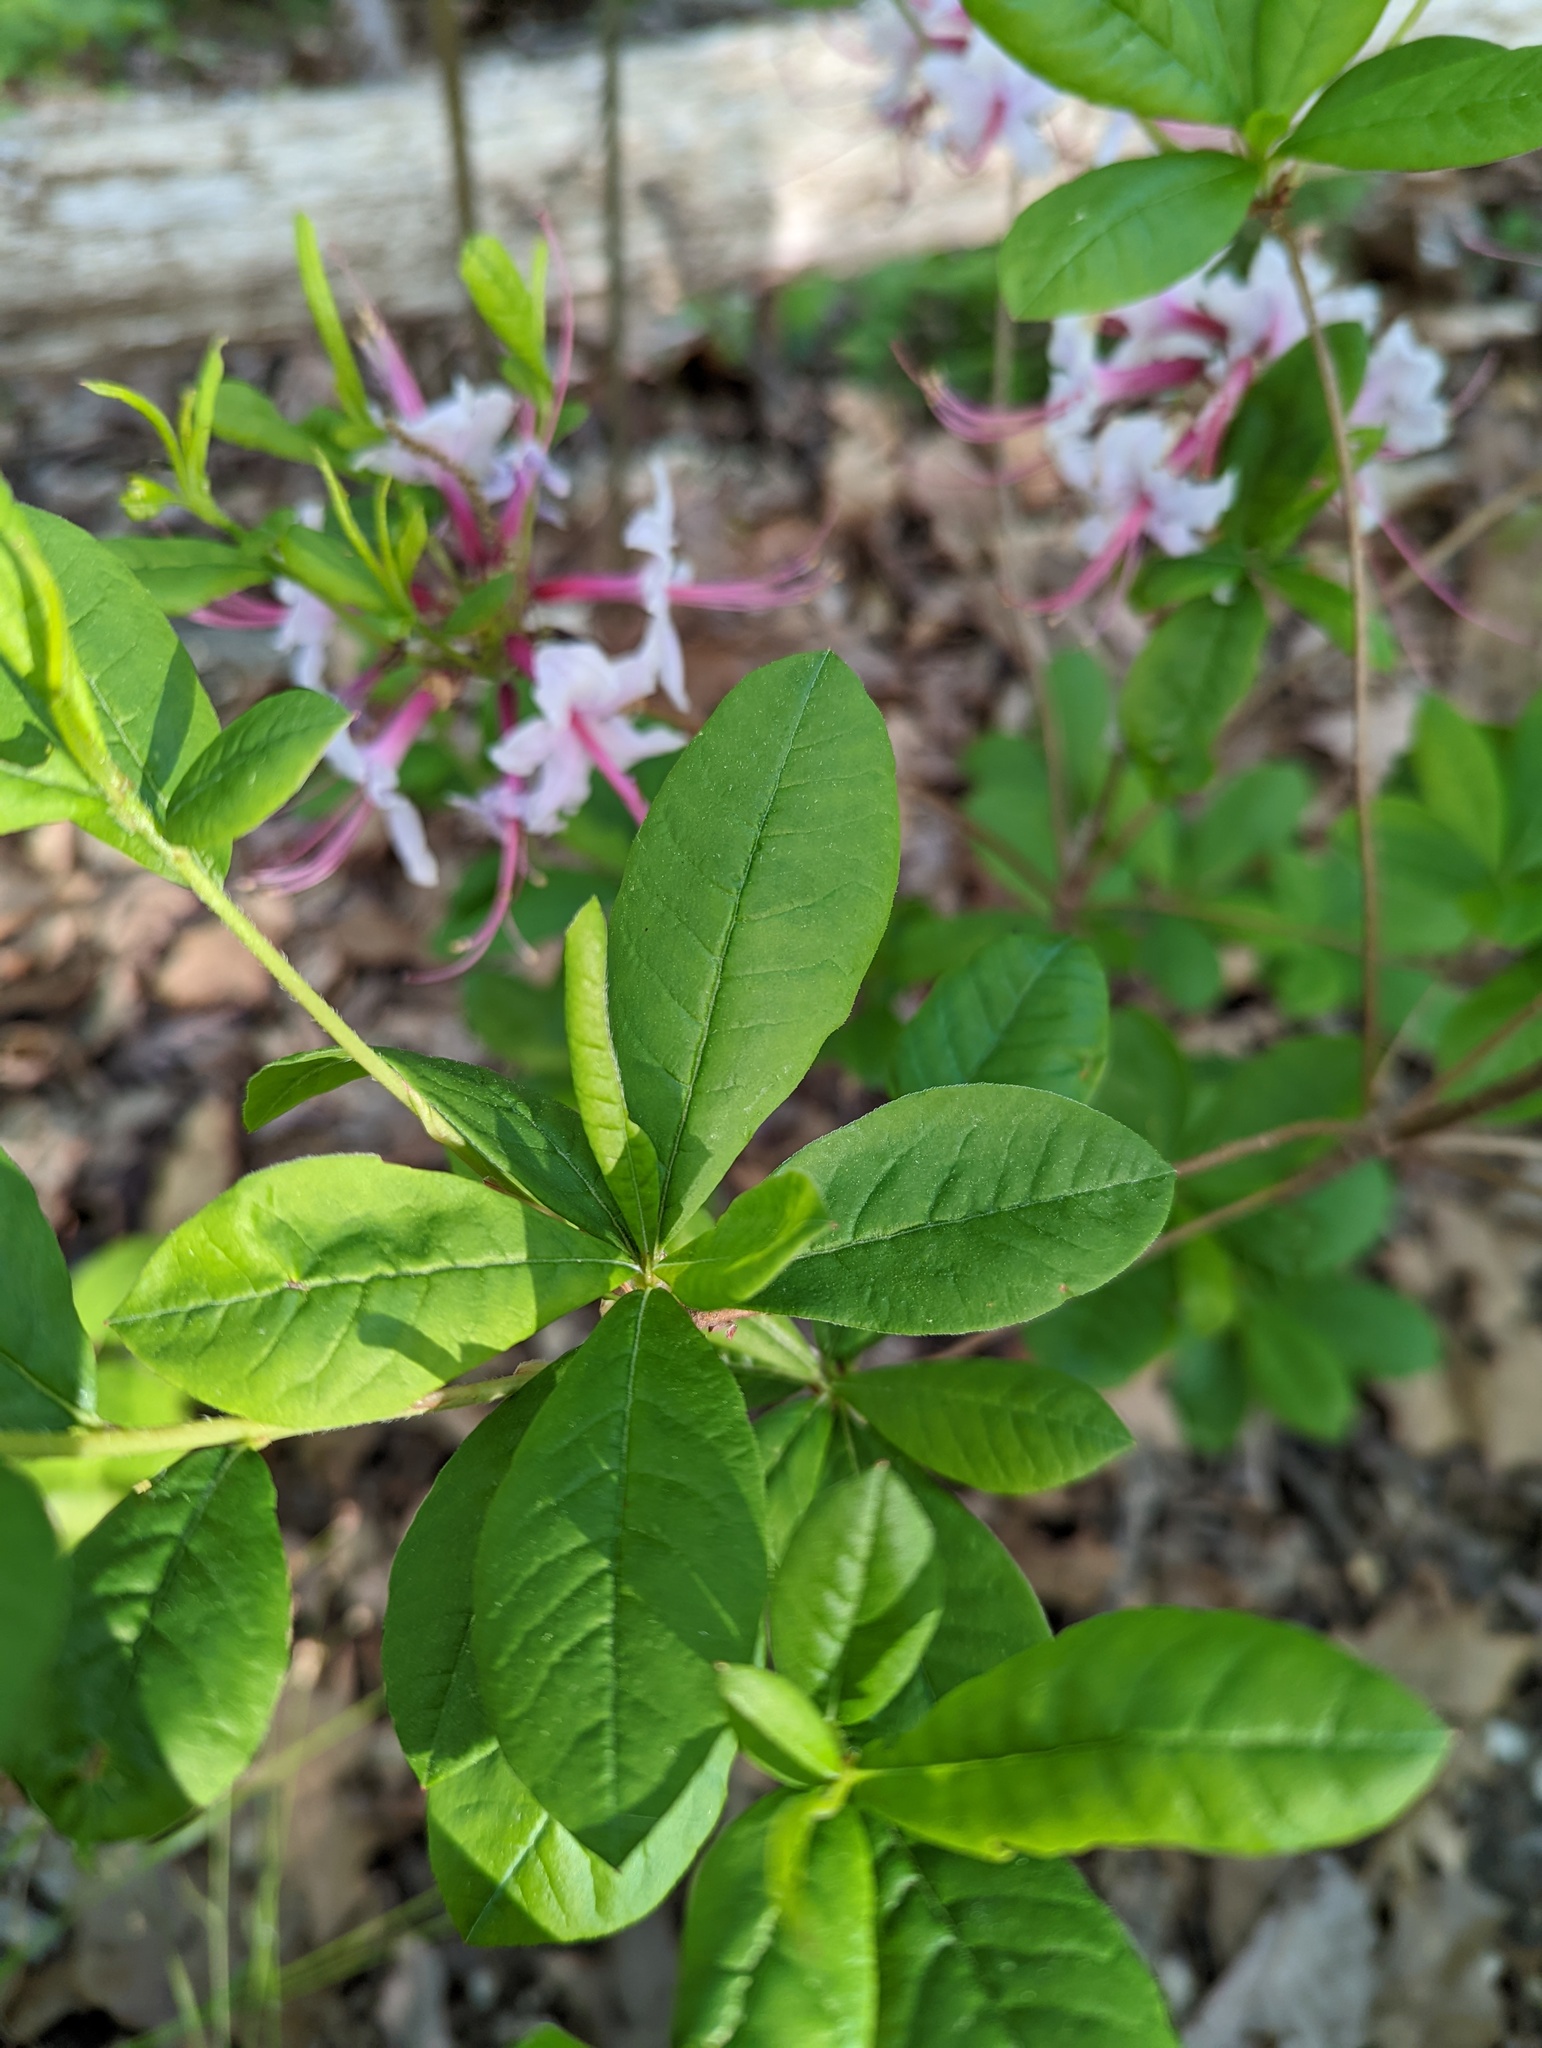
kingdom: Plantae
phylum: Tracheophyta
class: Magnoliopsida
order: Ericales
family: Ericaceae
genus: Rhododendron
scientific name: Rhododendron periclymenoides
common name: Election-pink
